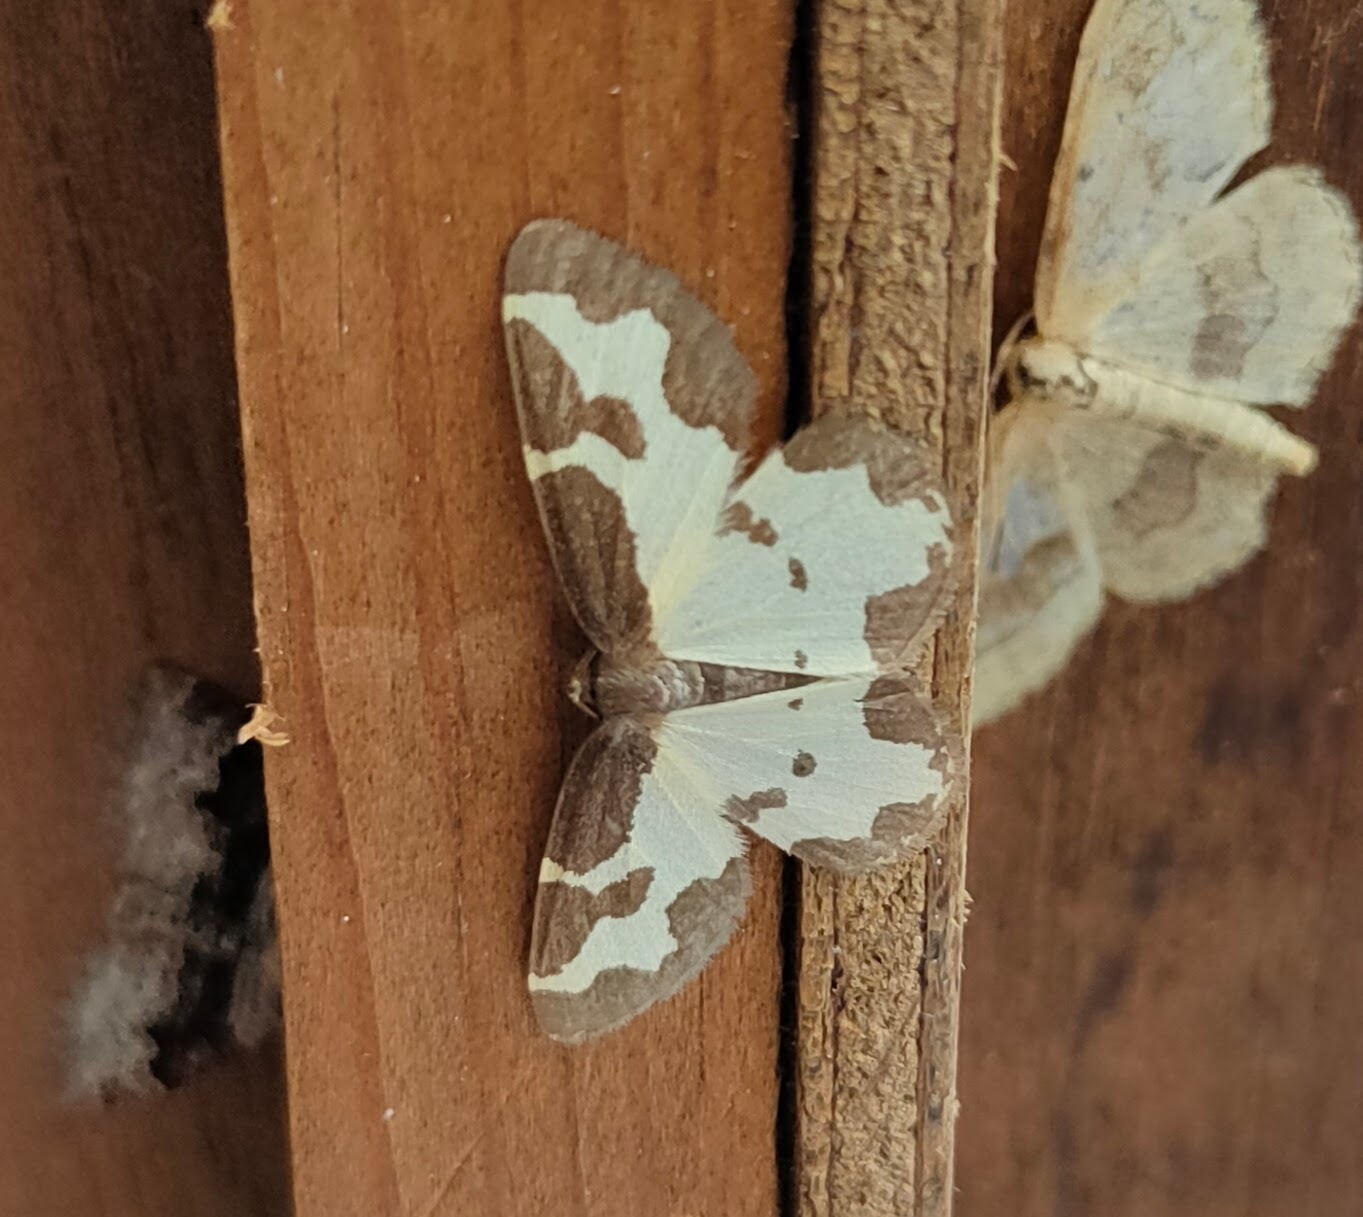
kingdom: Animalia
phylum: Arthropoda
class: Insecta
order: Lepidoptera
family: Geometridae
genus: Lomaspilis
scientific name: Lomaspilis marginata
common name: Clouded border
